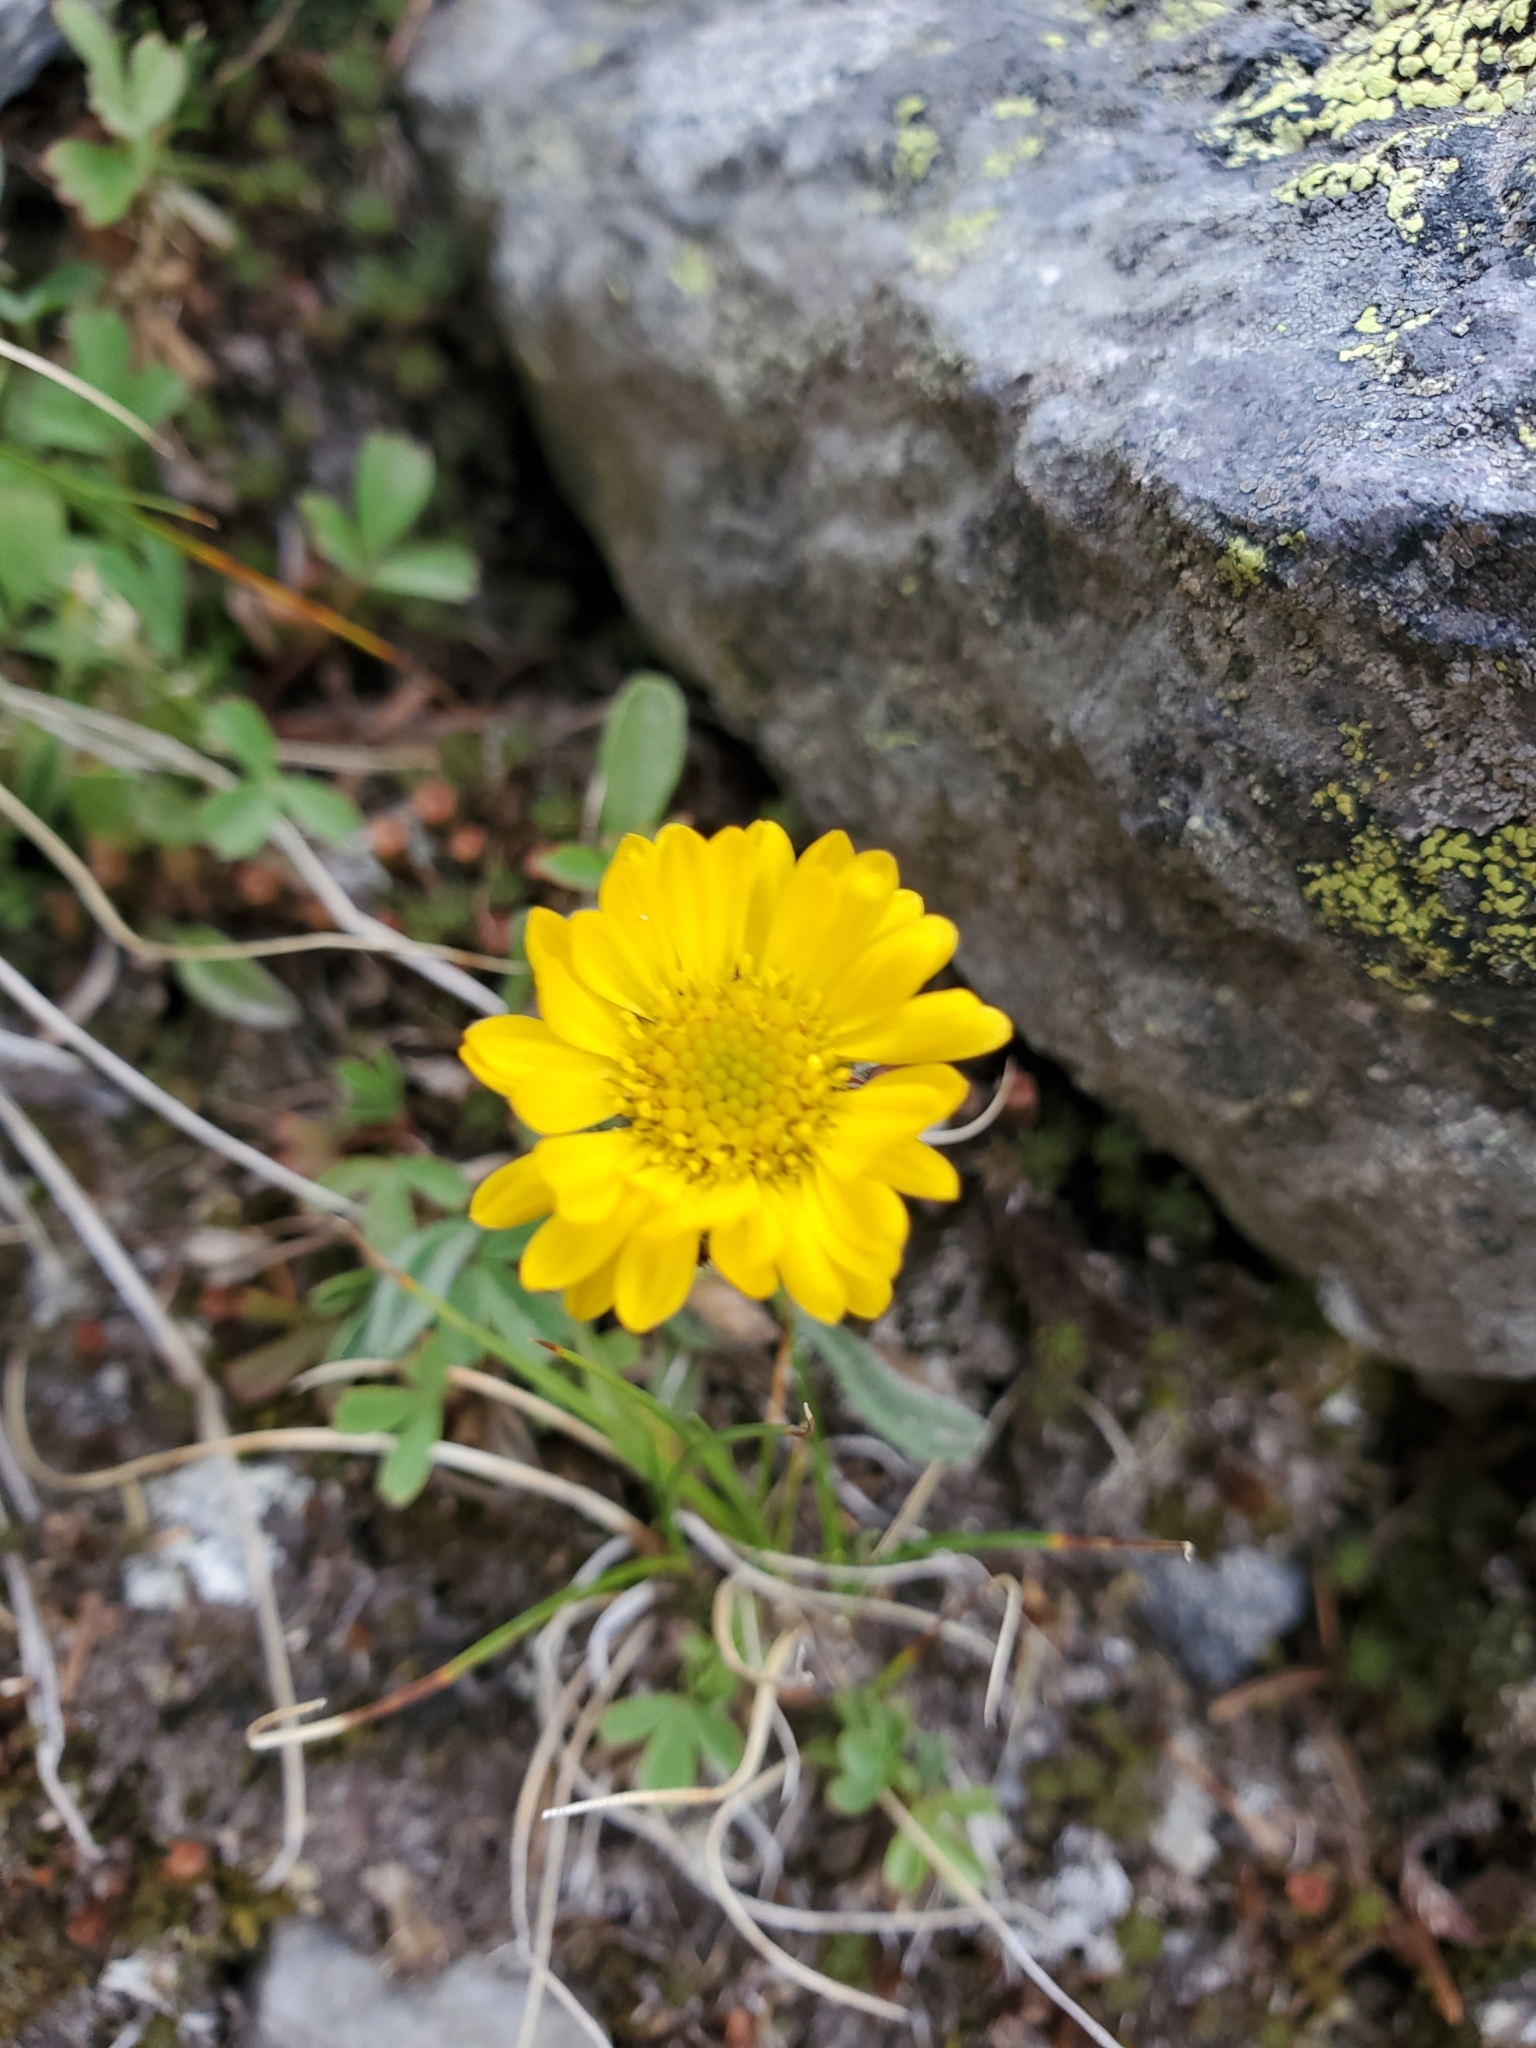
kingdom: Plantae
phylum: Tracheophyta
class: Magnoliopsida
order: Asterales
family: Asteraceae
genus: Erigeron
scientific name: Erigeron aureus
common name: Alpine yellow fleabane
